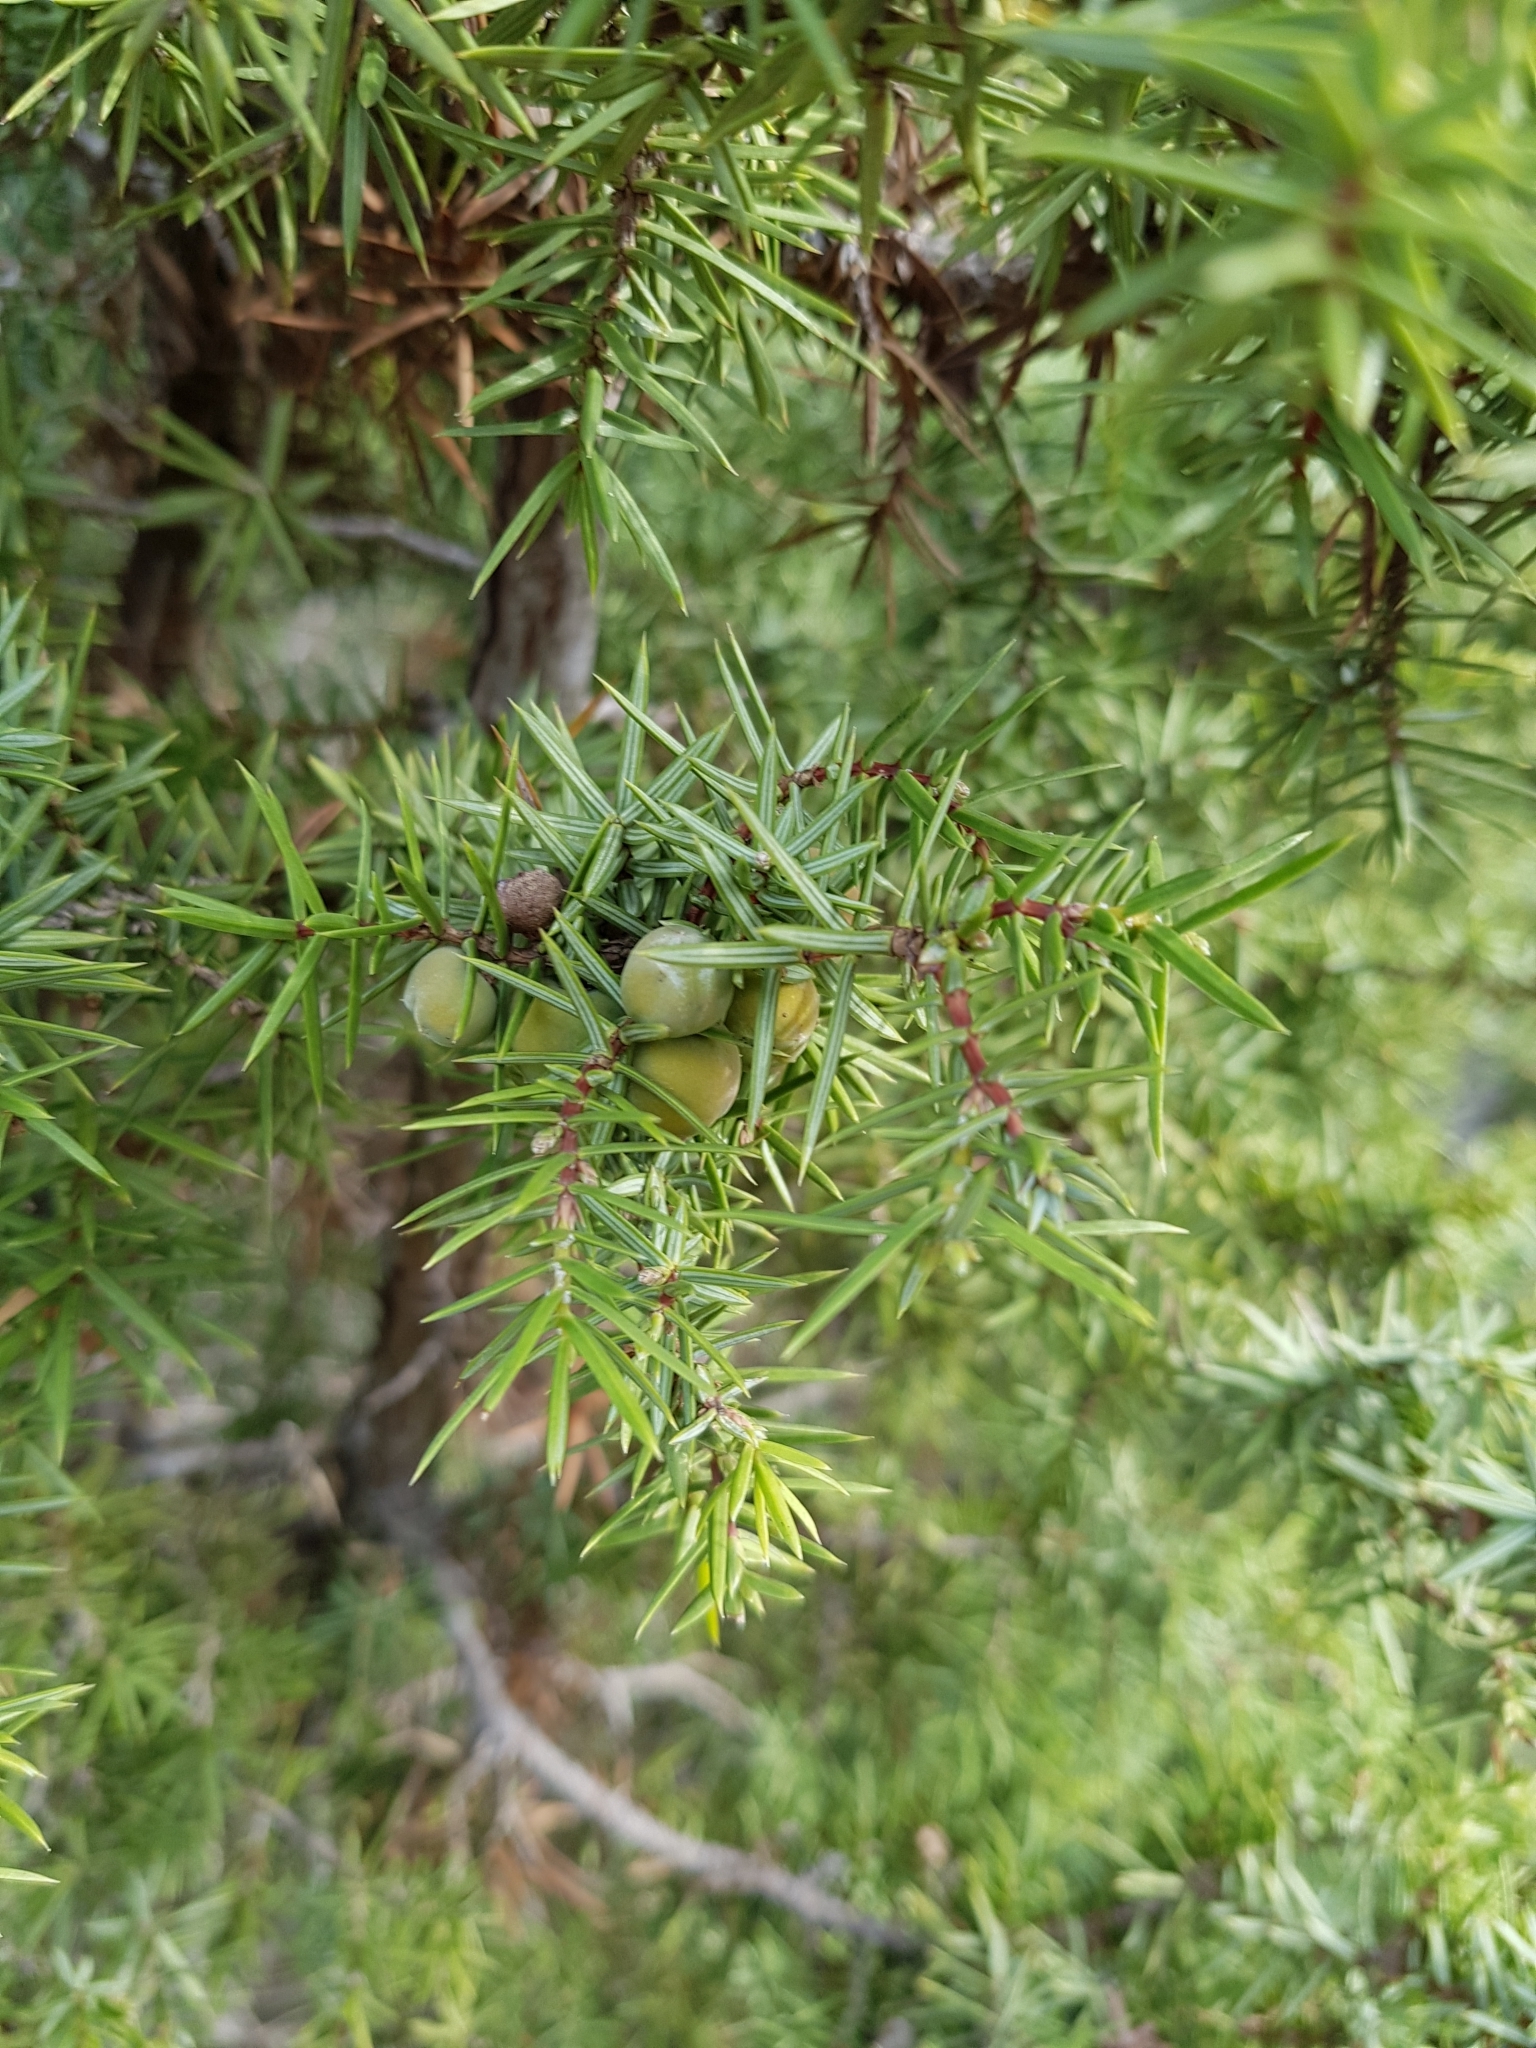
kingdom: Plantae
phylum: Tracheophyta
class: Pinopsida
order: Pinales
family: Cupressaceae
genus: Juniperus
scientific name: Juniperus oxycedrus
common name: Prickly juniper
